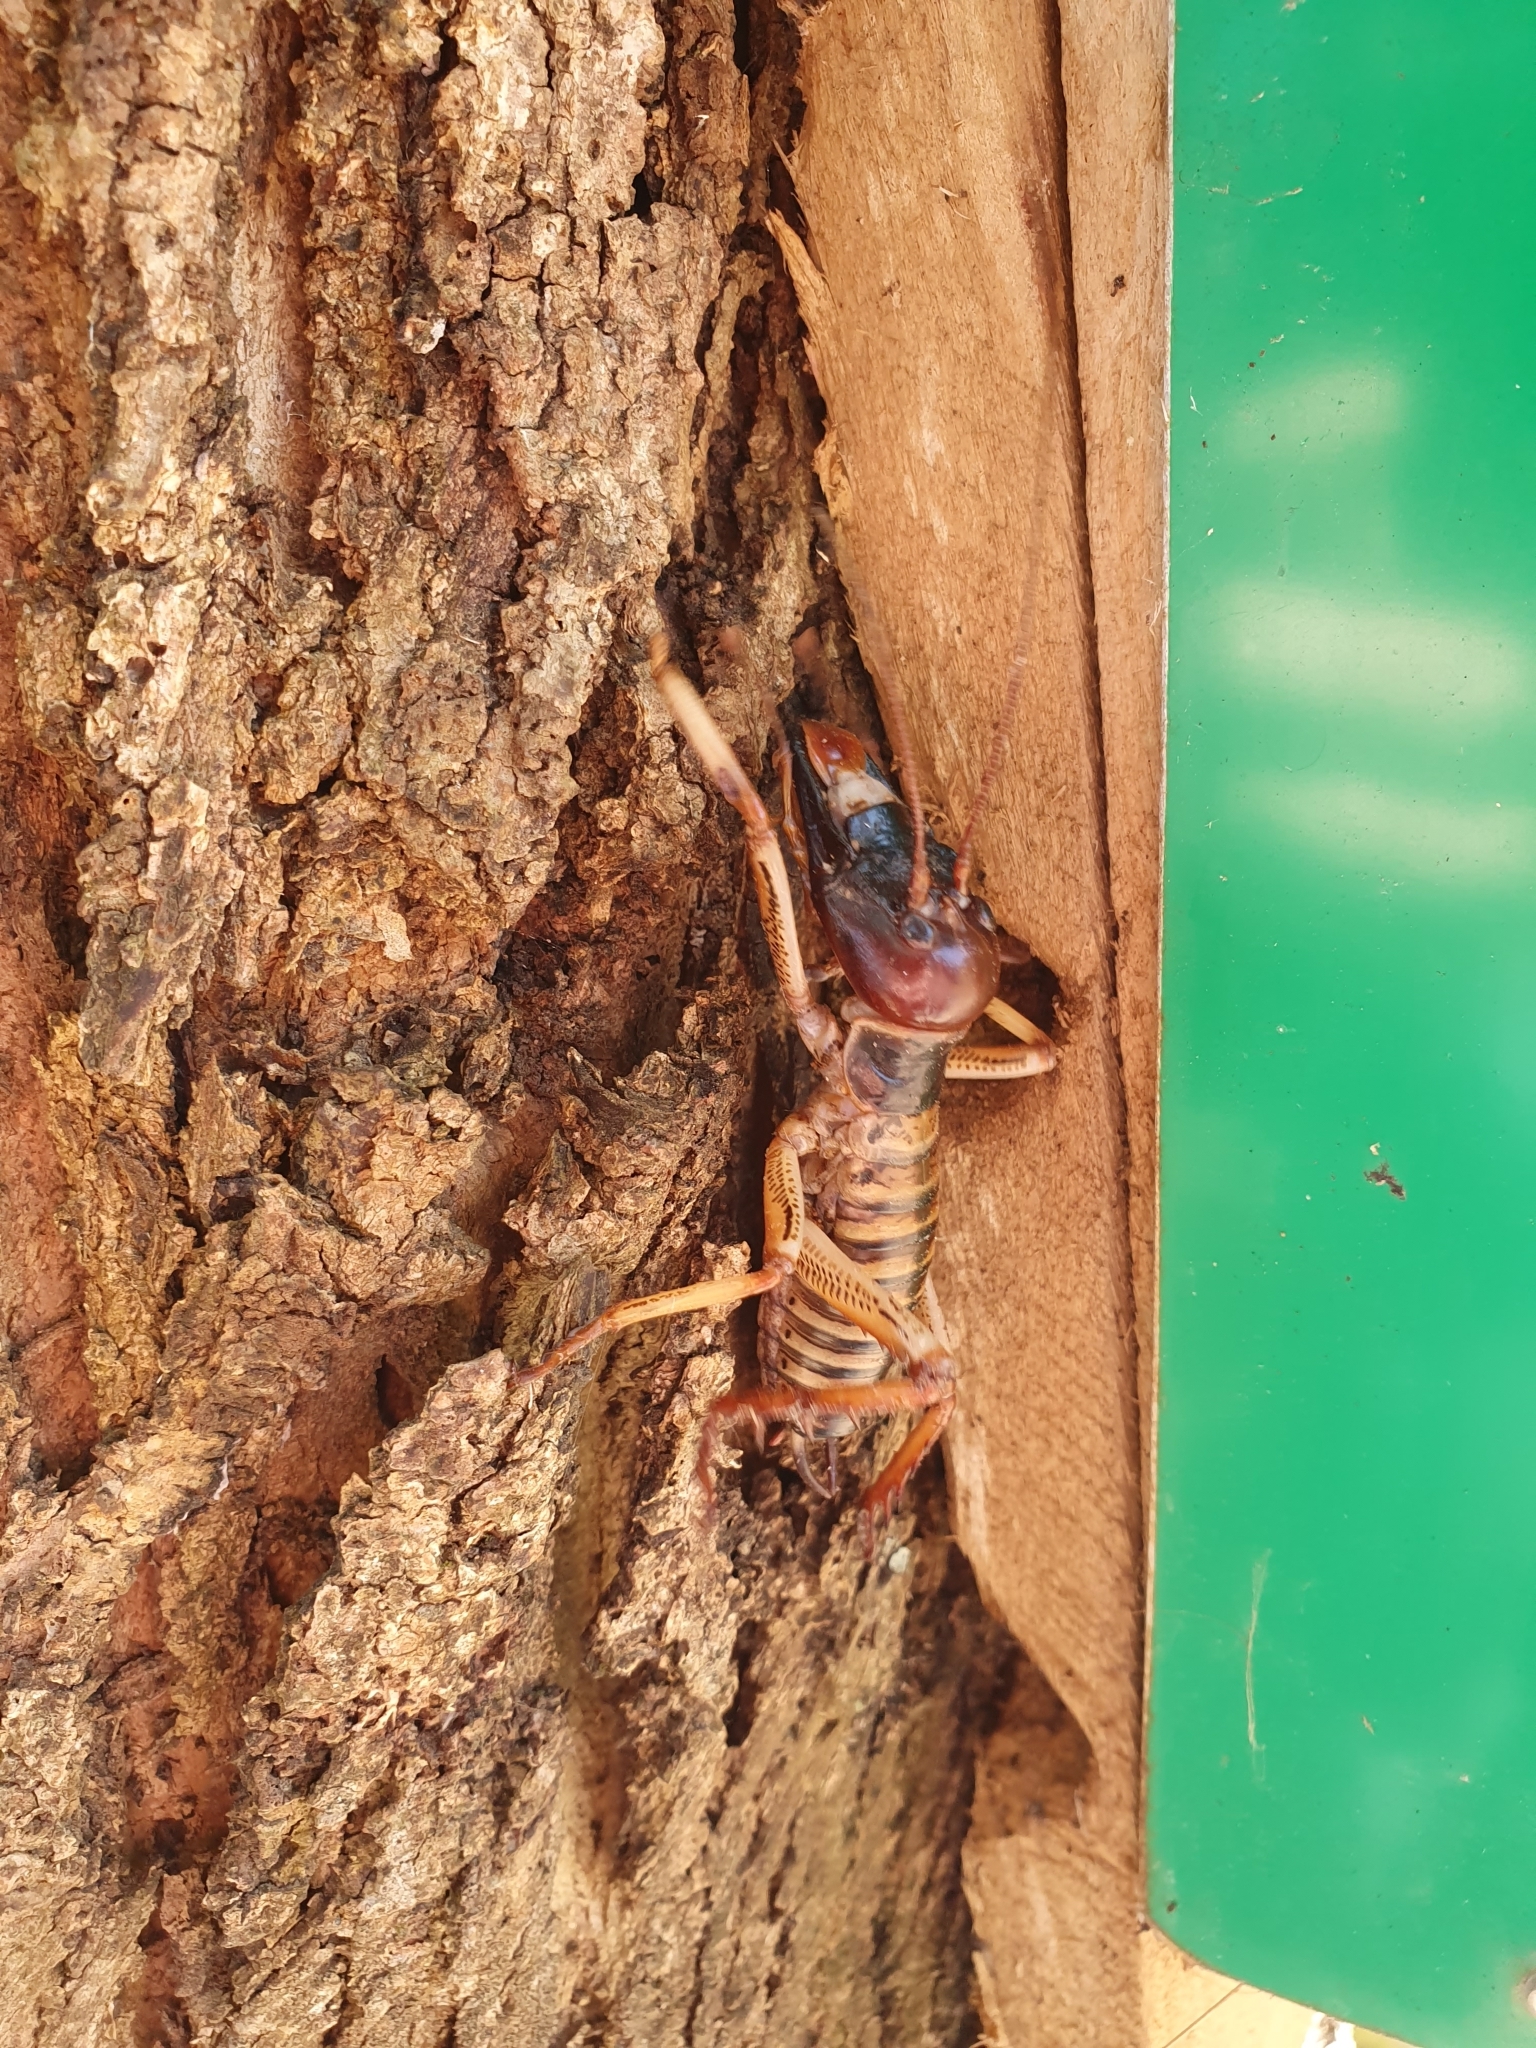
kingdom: Animalia
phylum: Arthropoda
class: Insecta
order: Orthoptera
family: Anostostomatidae
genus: Hemideina
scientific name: Hemideina crassidens
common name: Wellington tree weta
